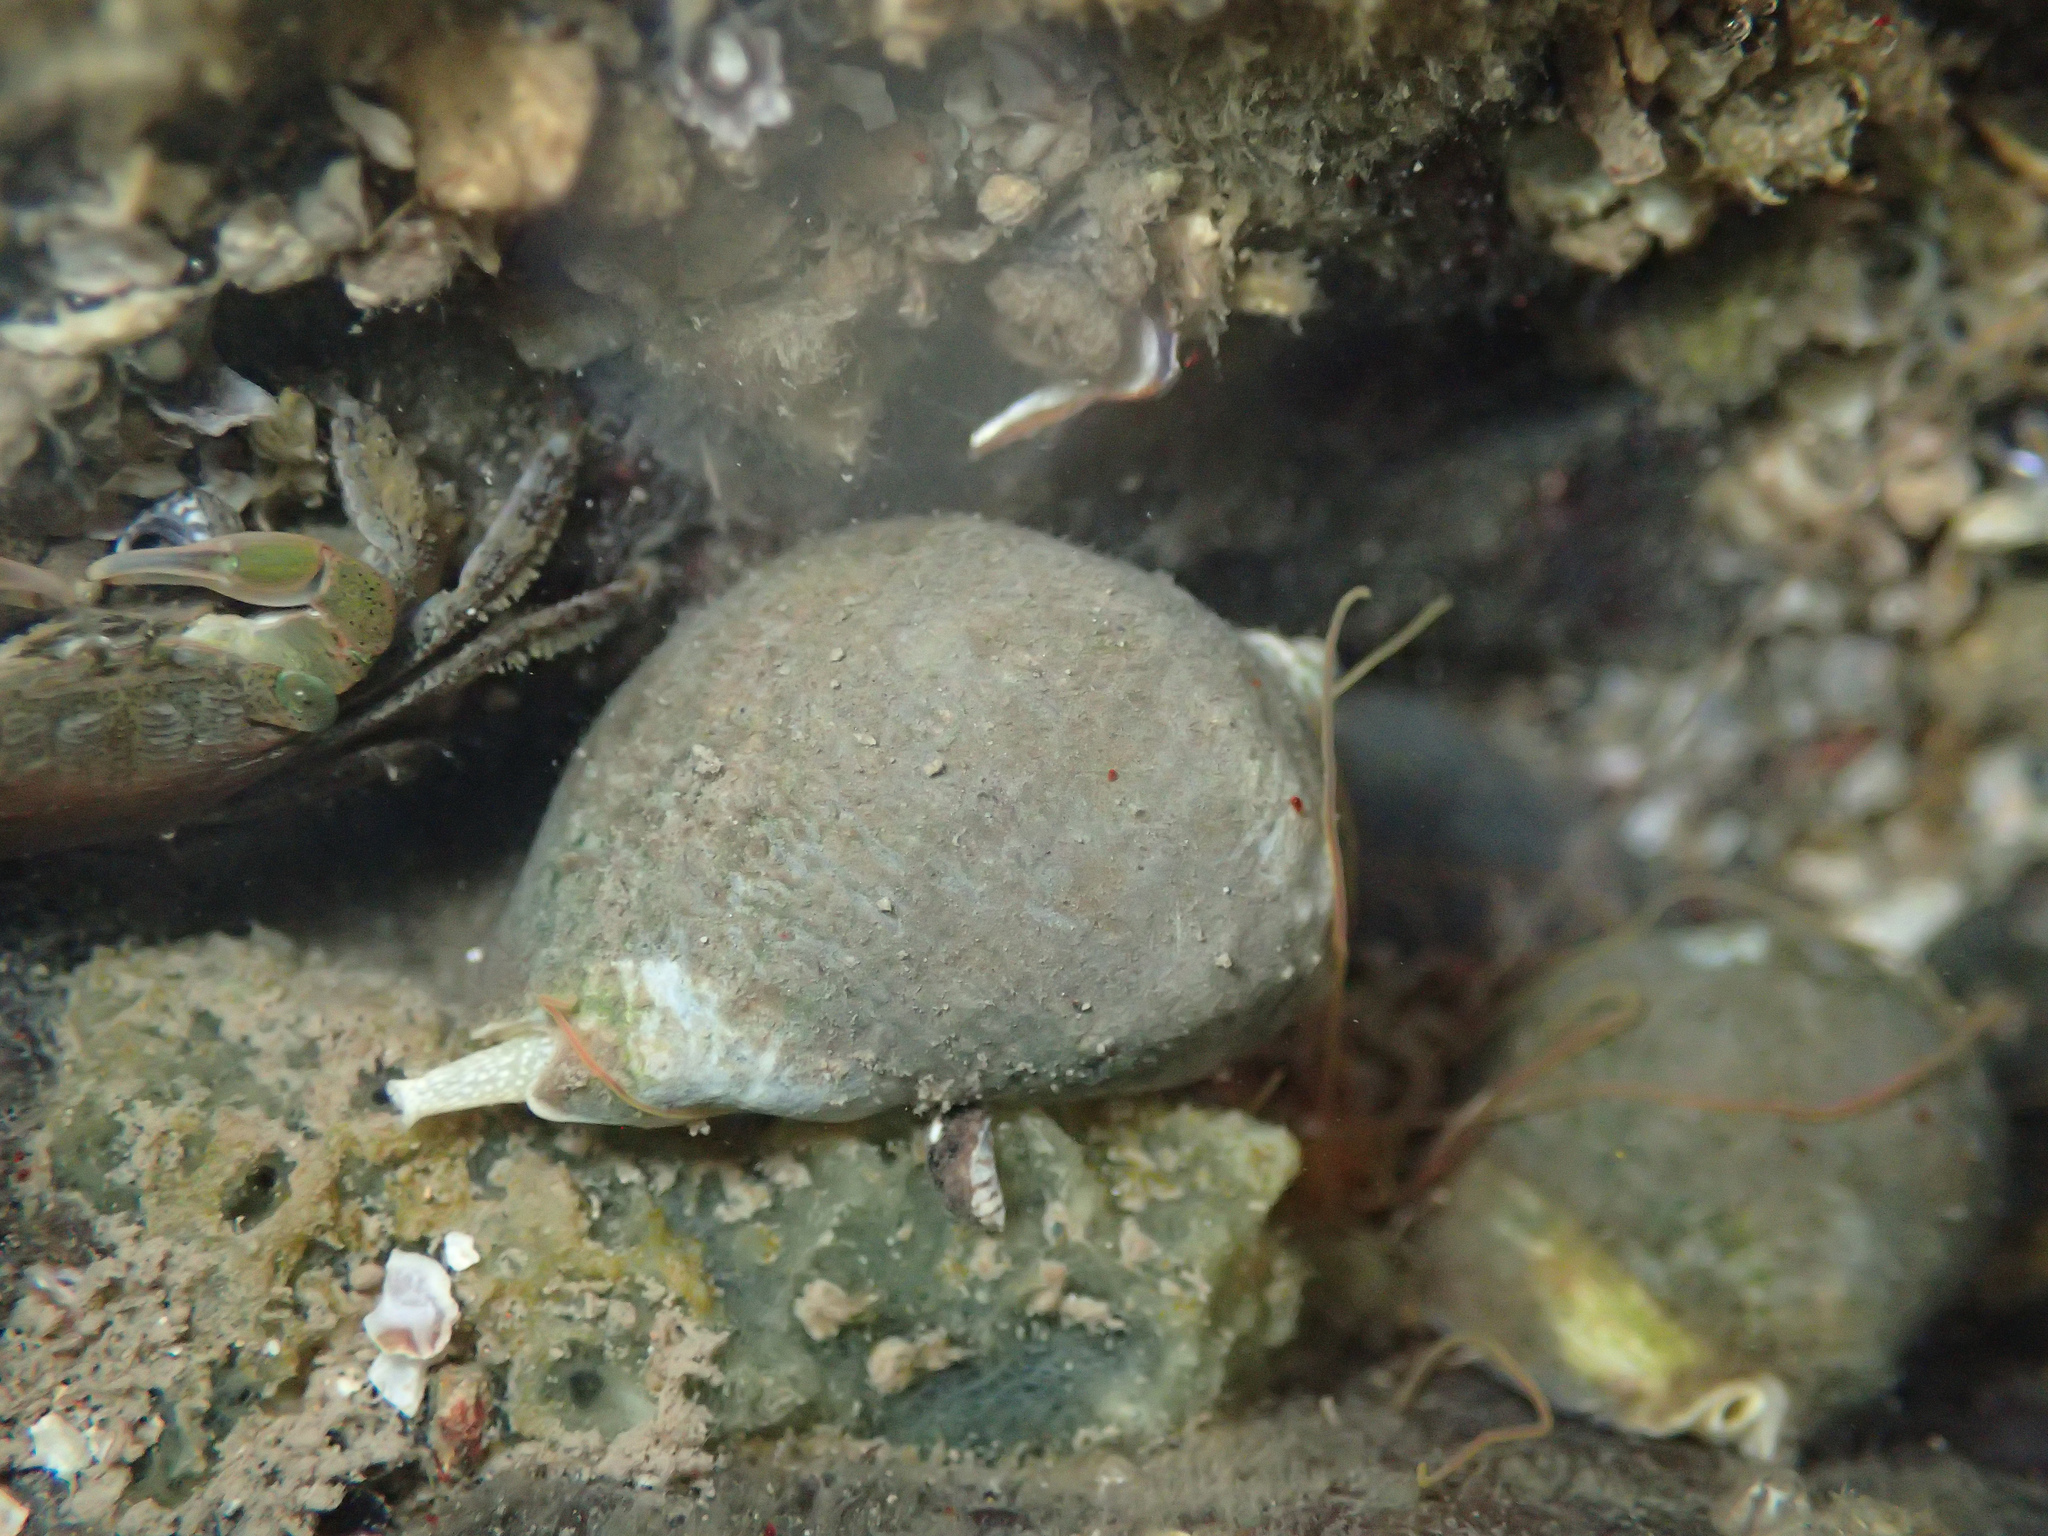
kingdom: Animalia
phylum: Mollusca
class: Gastropoda
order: Neogastropoda
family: Muricidae
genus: Vasula
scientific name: Vasula melones
